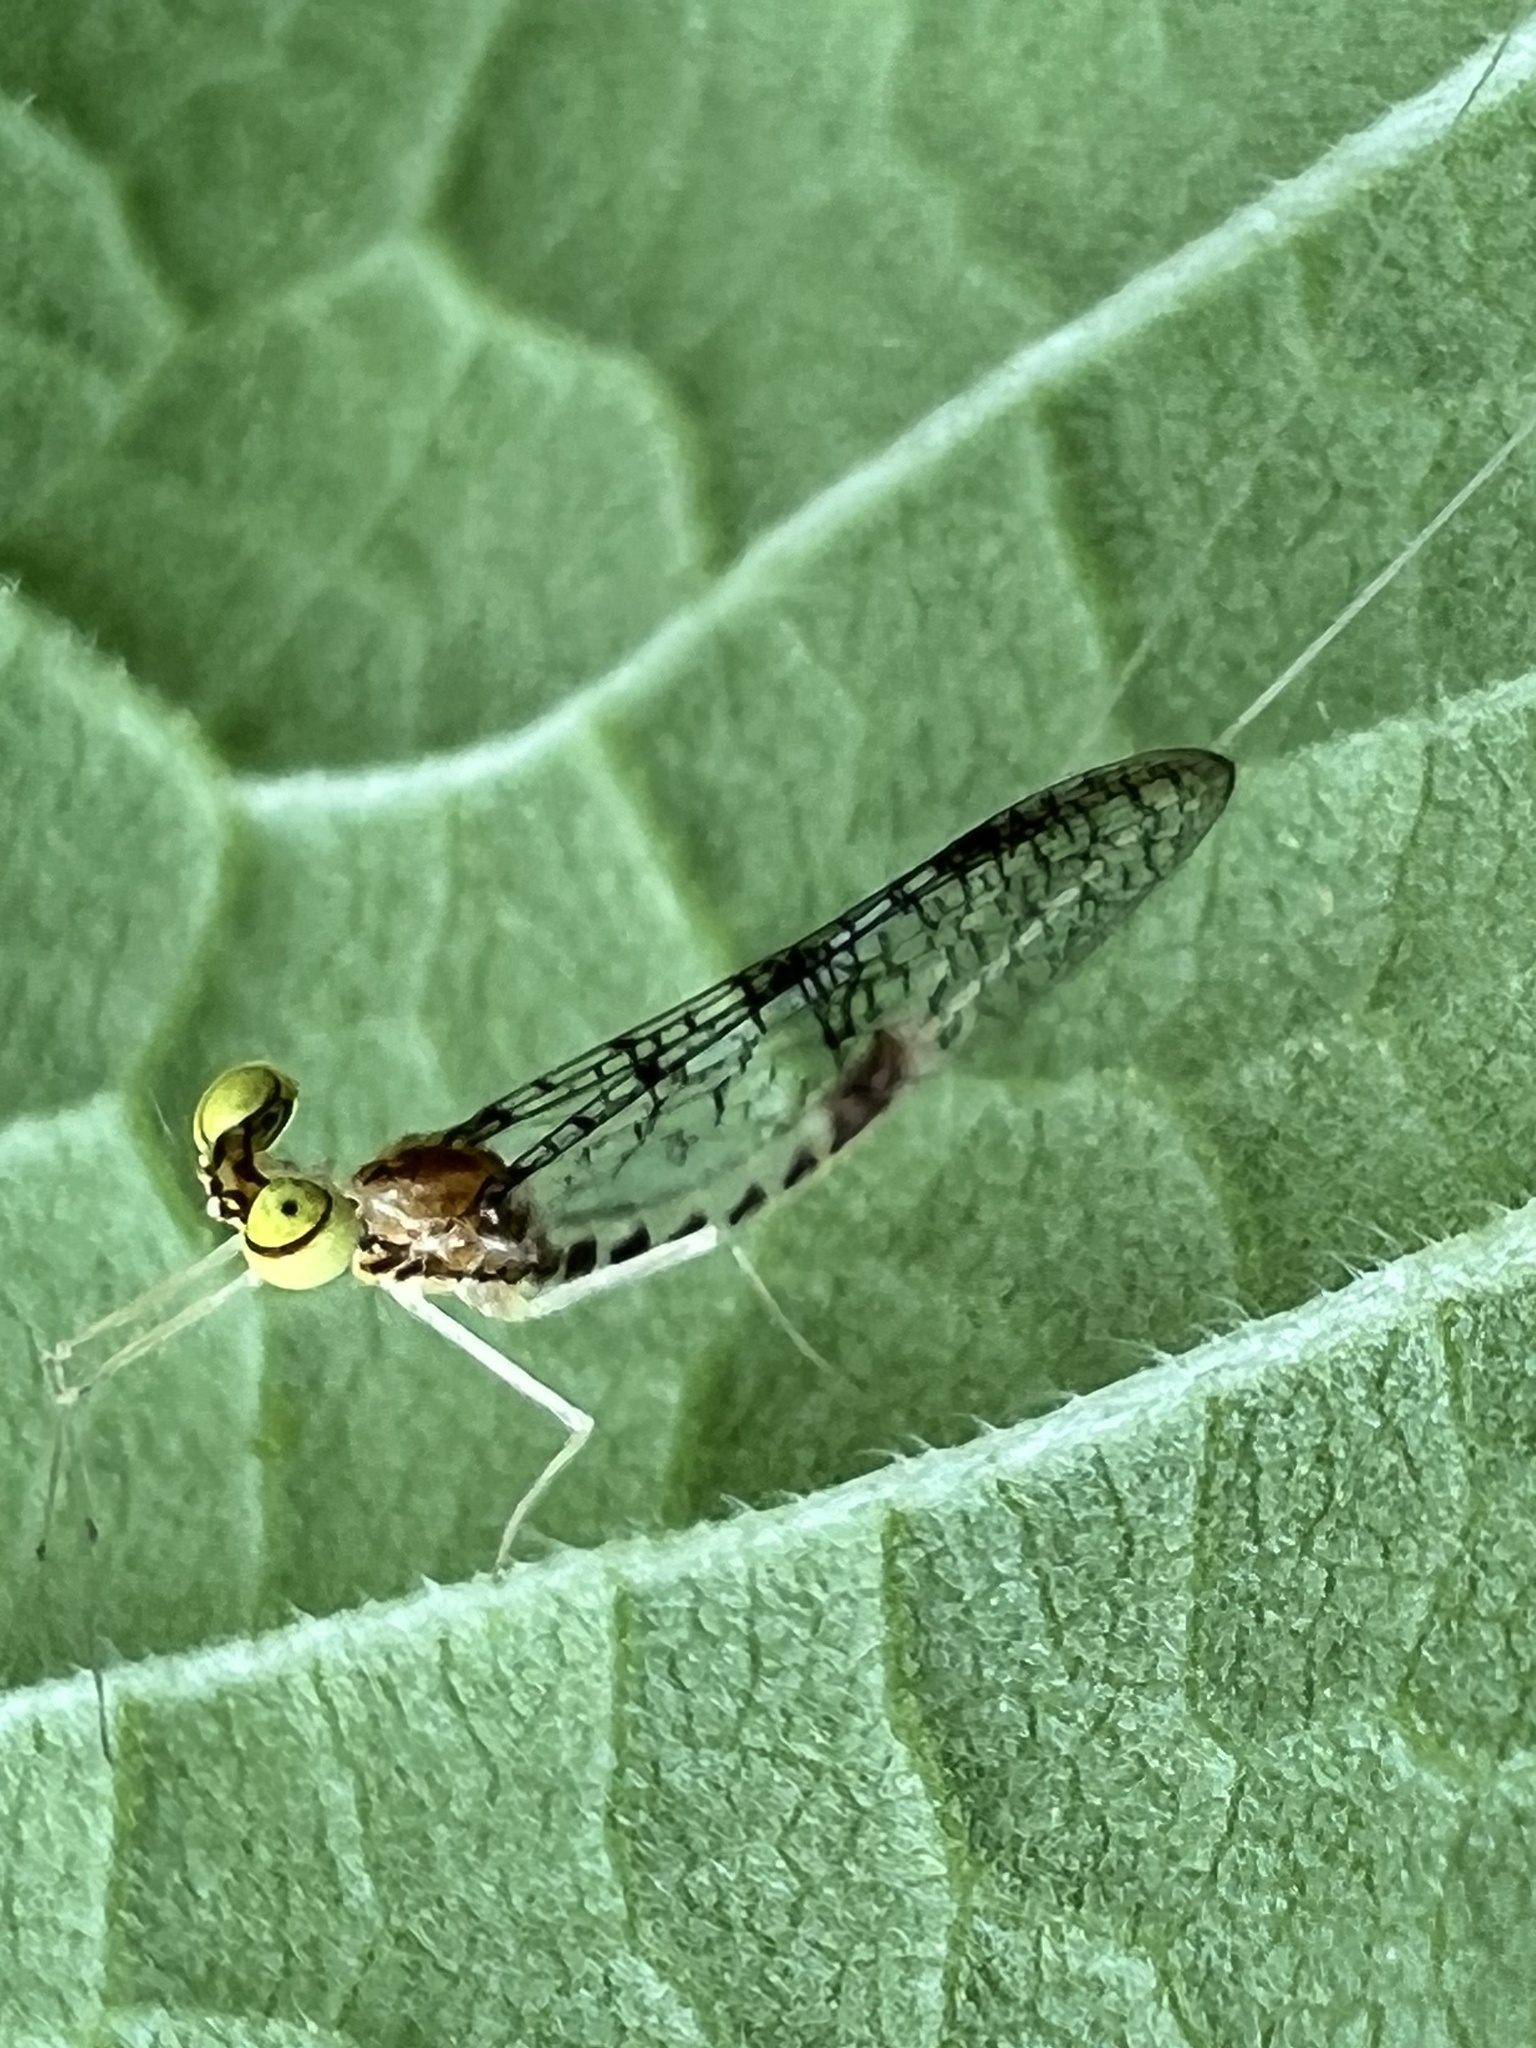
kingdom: Animalia
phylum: Arthropoda
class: Insecta
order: Ephemeroptera
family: Heptageniidae
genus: Leucrocuta
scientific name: Leucrocuta minerva
